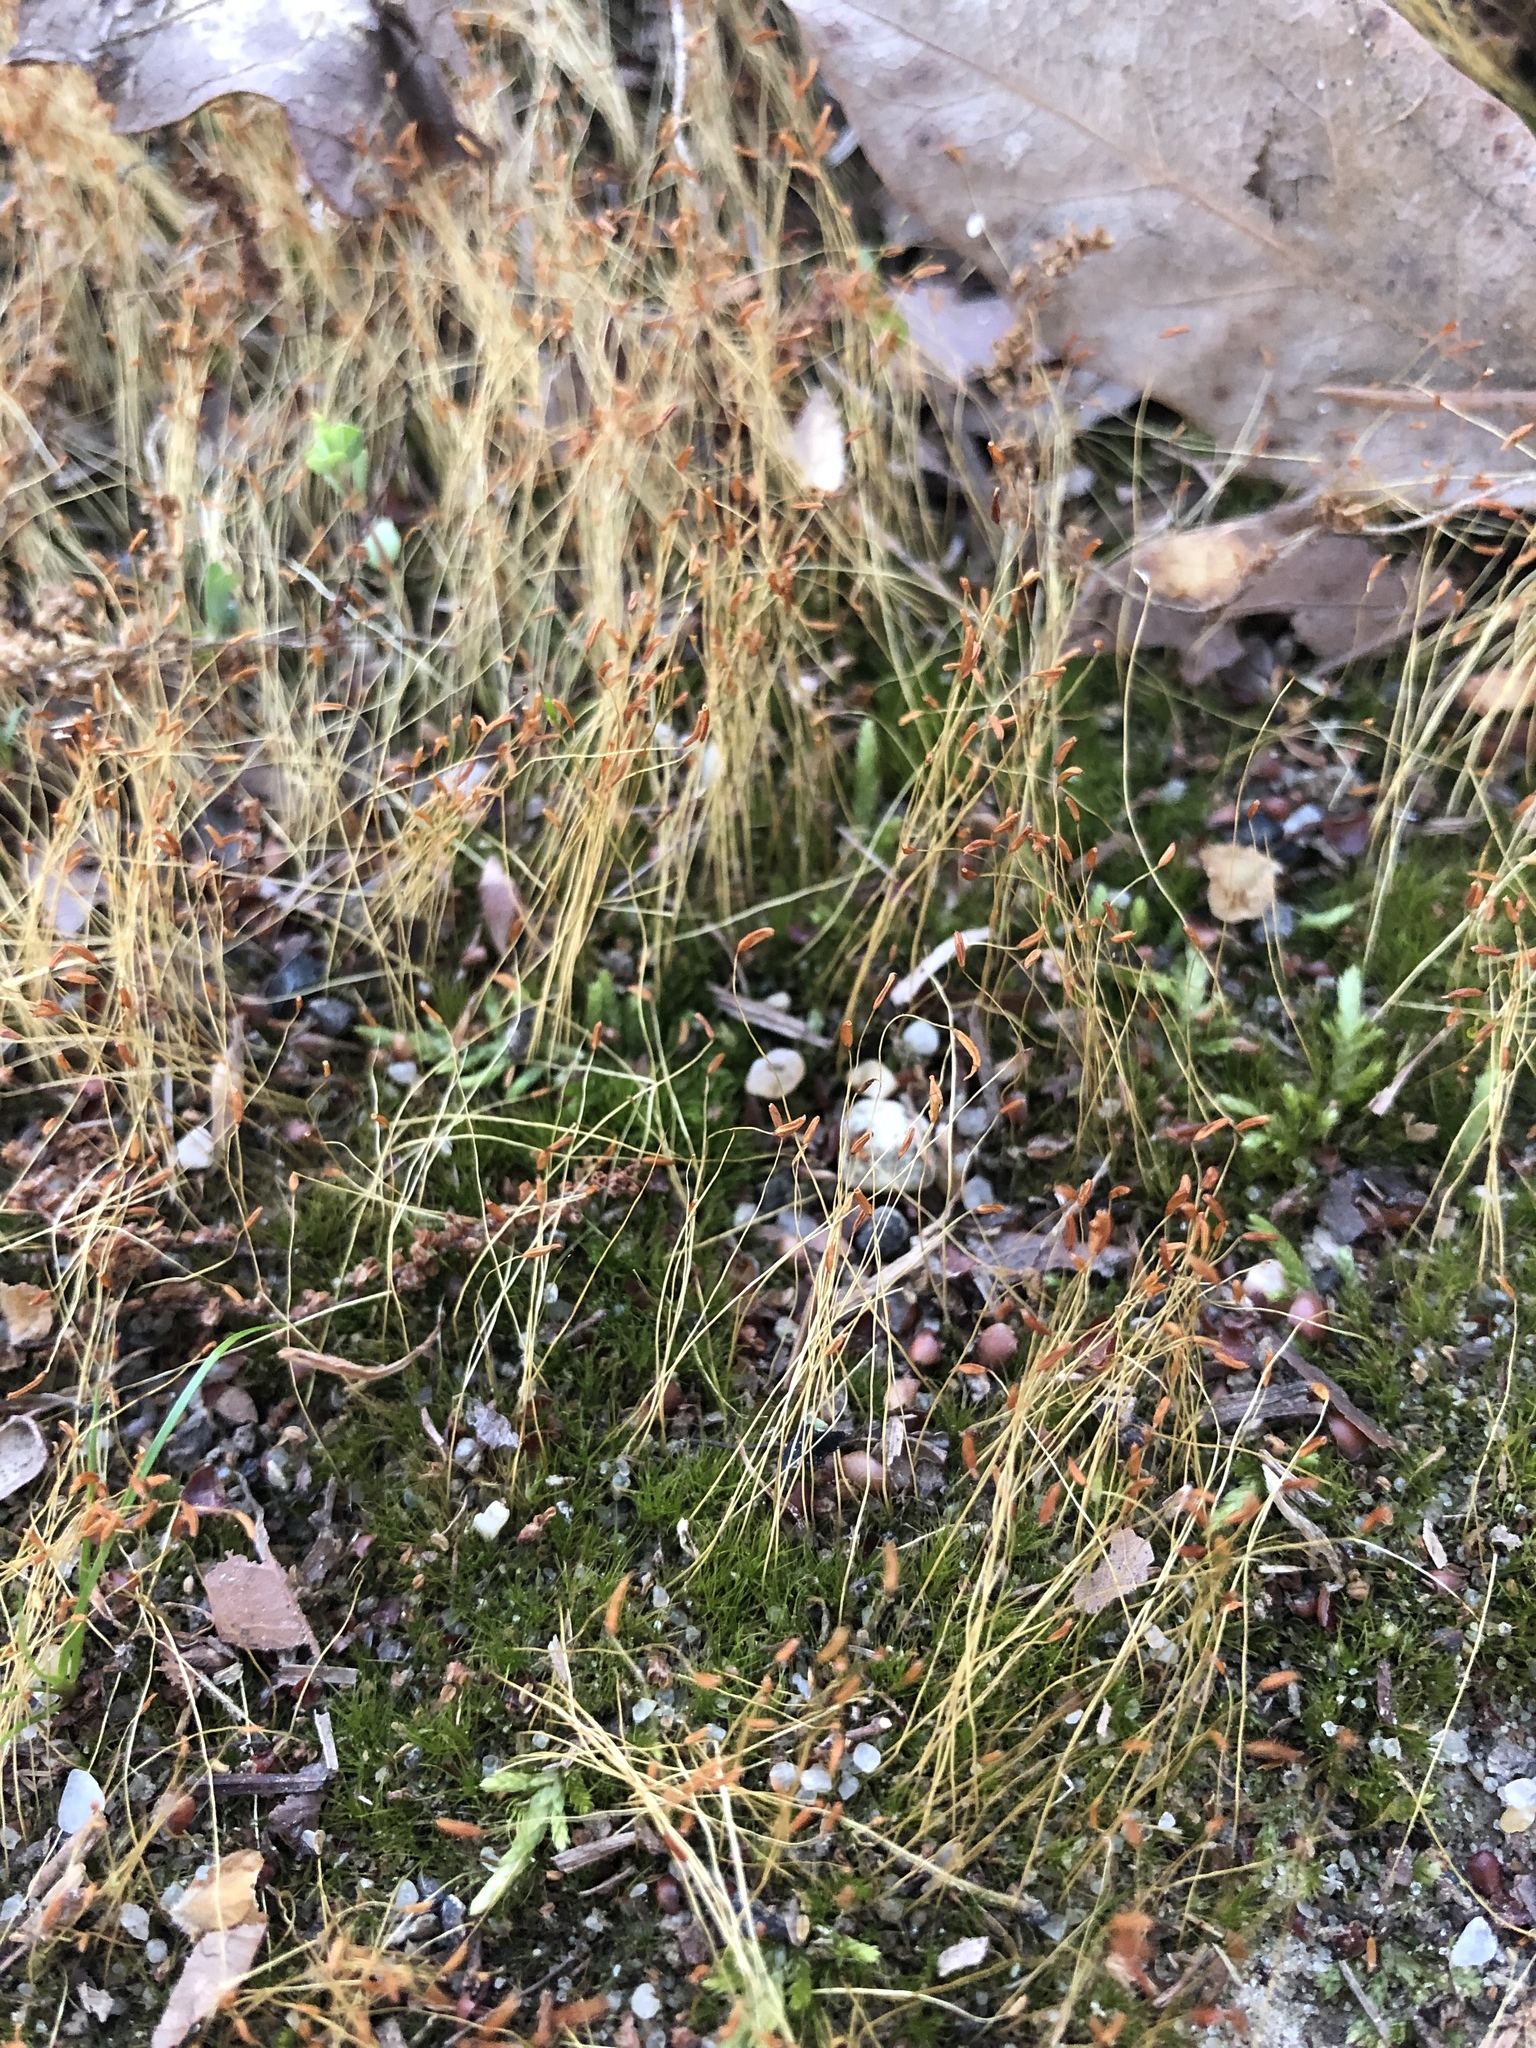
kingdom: Plantae
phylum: Bryophyta
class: Bryopsida
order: Dicranales
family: Dicranaceae
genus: Dicranum
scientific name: Dicranum scoparium
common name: Broom fork-moss
